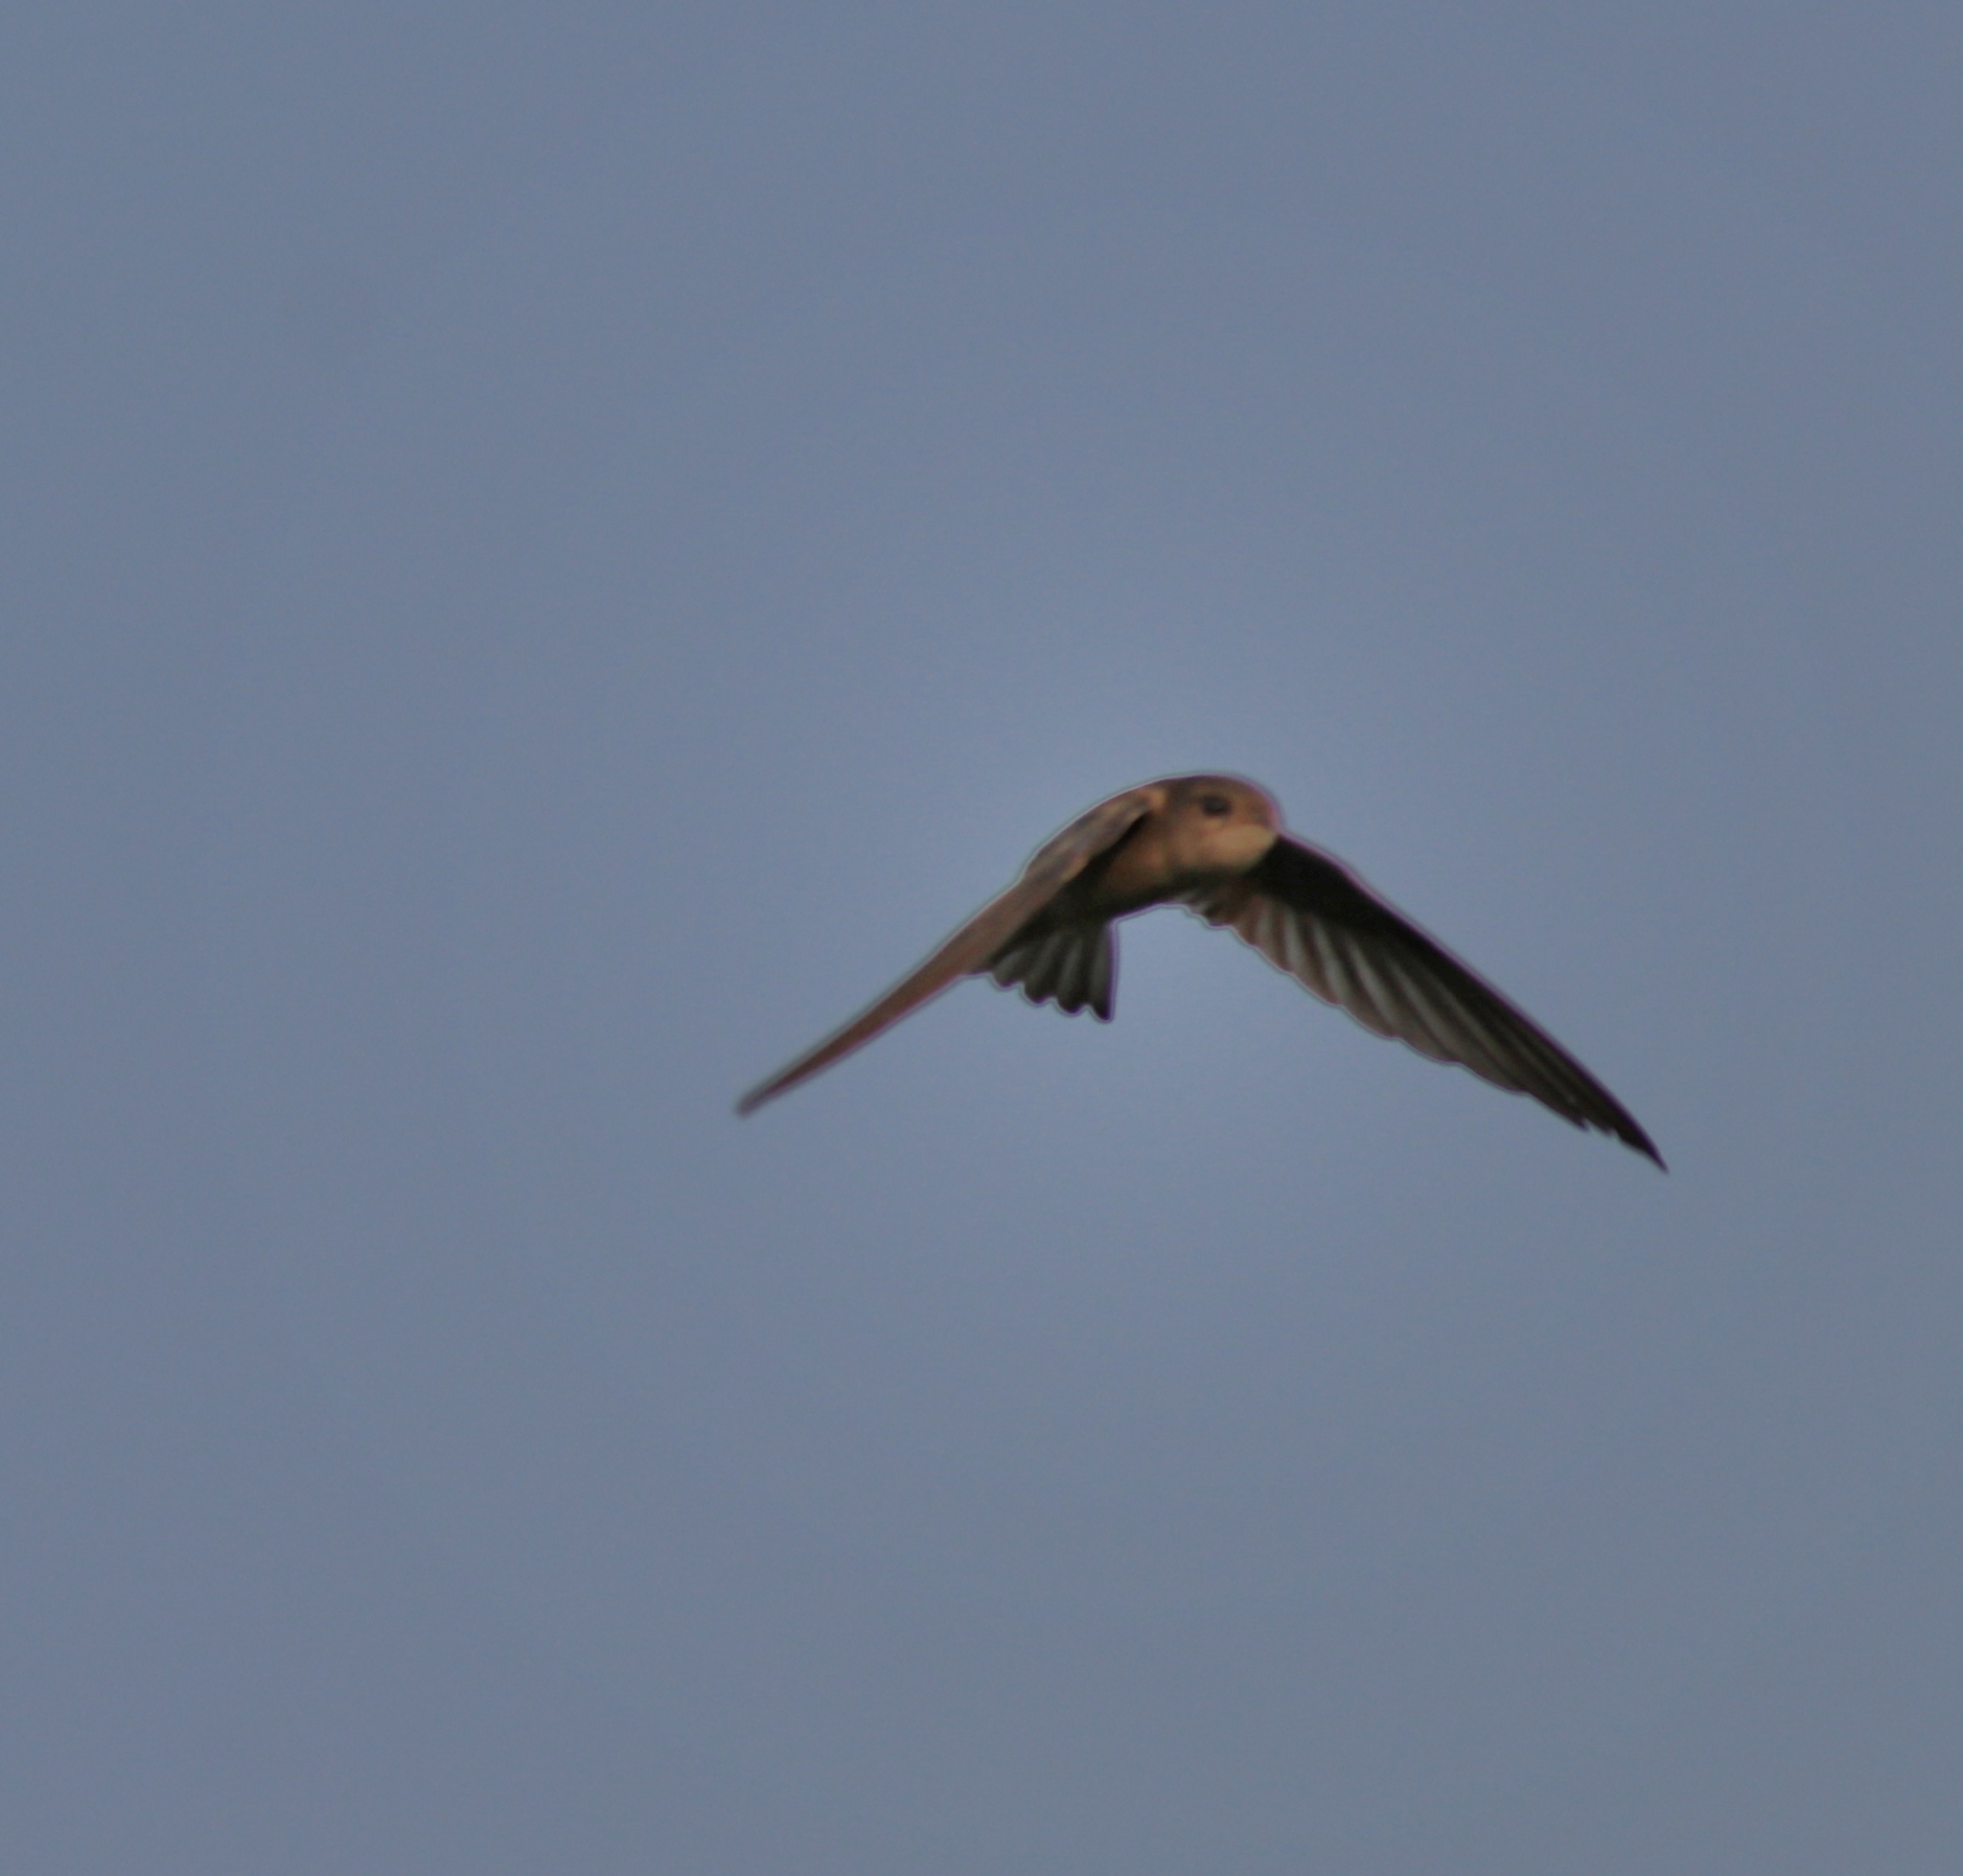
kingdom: Animalia
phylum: Chordata
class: Aves
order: Apodiformes
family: Apodidae
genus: Cypsiurus
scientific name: Cypsiurus balasiensis
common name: Asian palm swift
